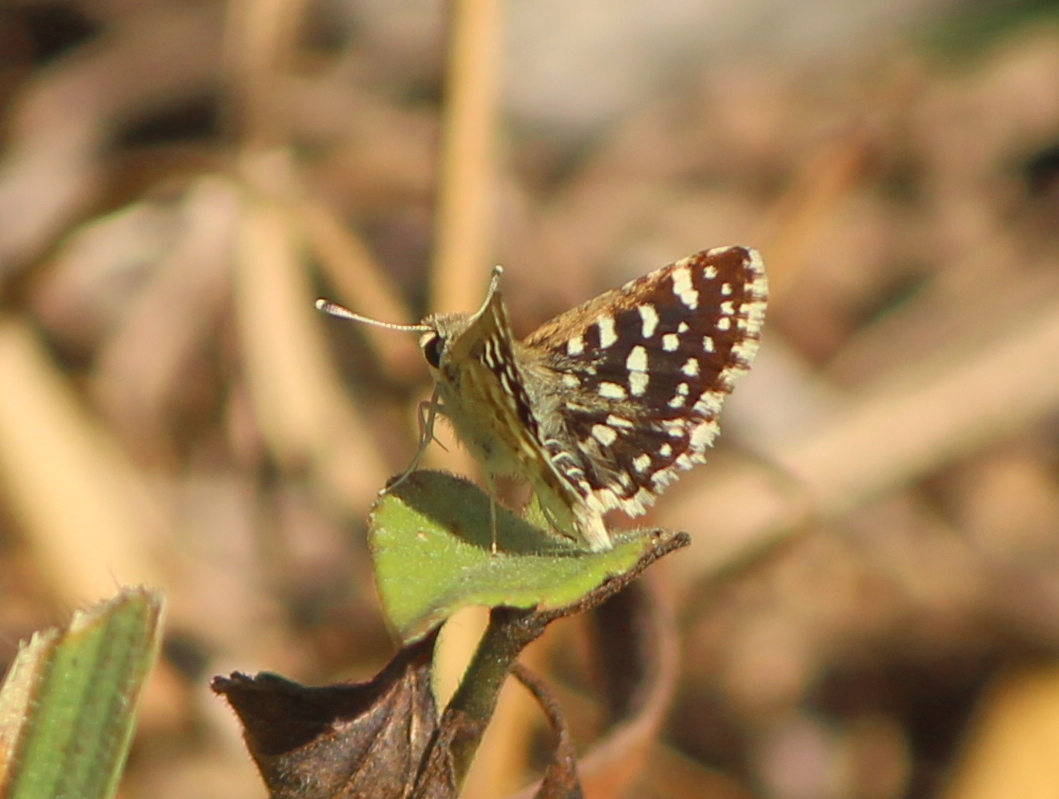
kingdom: Animalia
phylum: Arthropoda
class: Insecta
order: Lepidoptera
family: Hesperiidae
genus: Spialia
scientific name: Spialia galba
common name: Indian skipper
